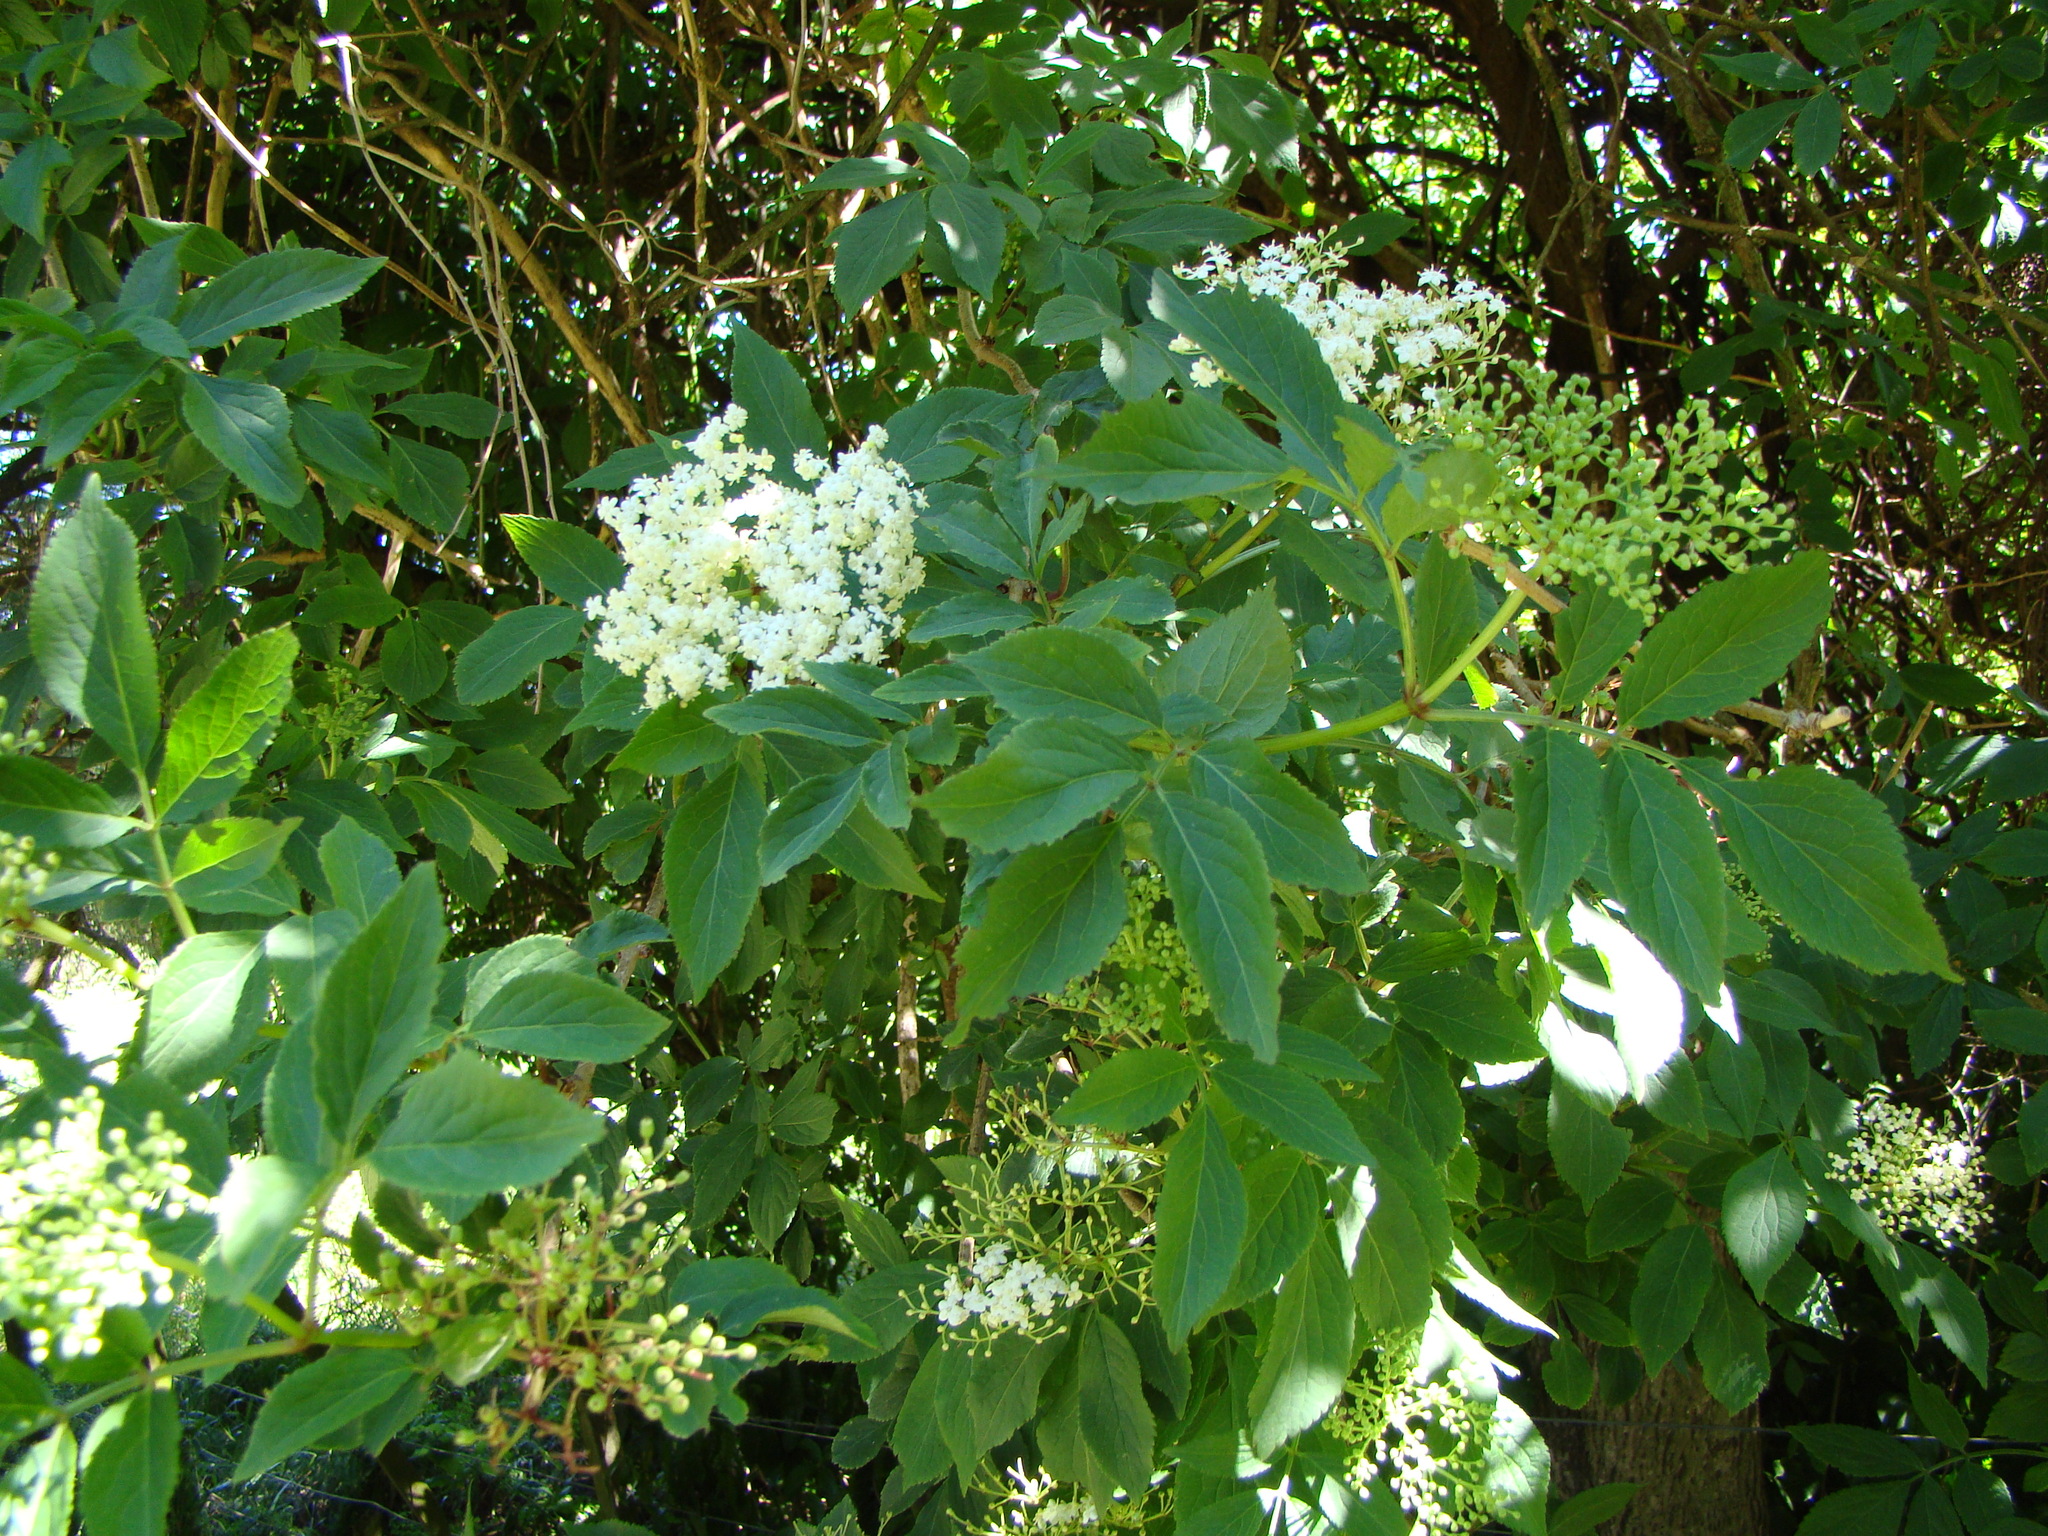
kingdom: Plantae
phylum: Tracheophyta
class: Magnoliopsida
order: Dipsacales
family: Viburnaceae
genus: Sambucus
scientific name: Sambucus nigra
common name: Elder
